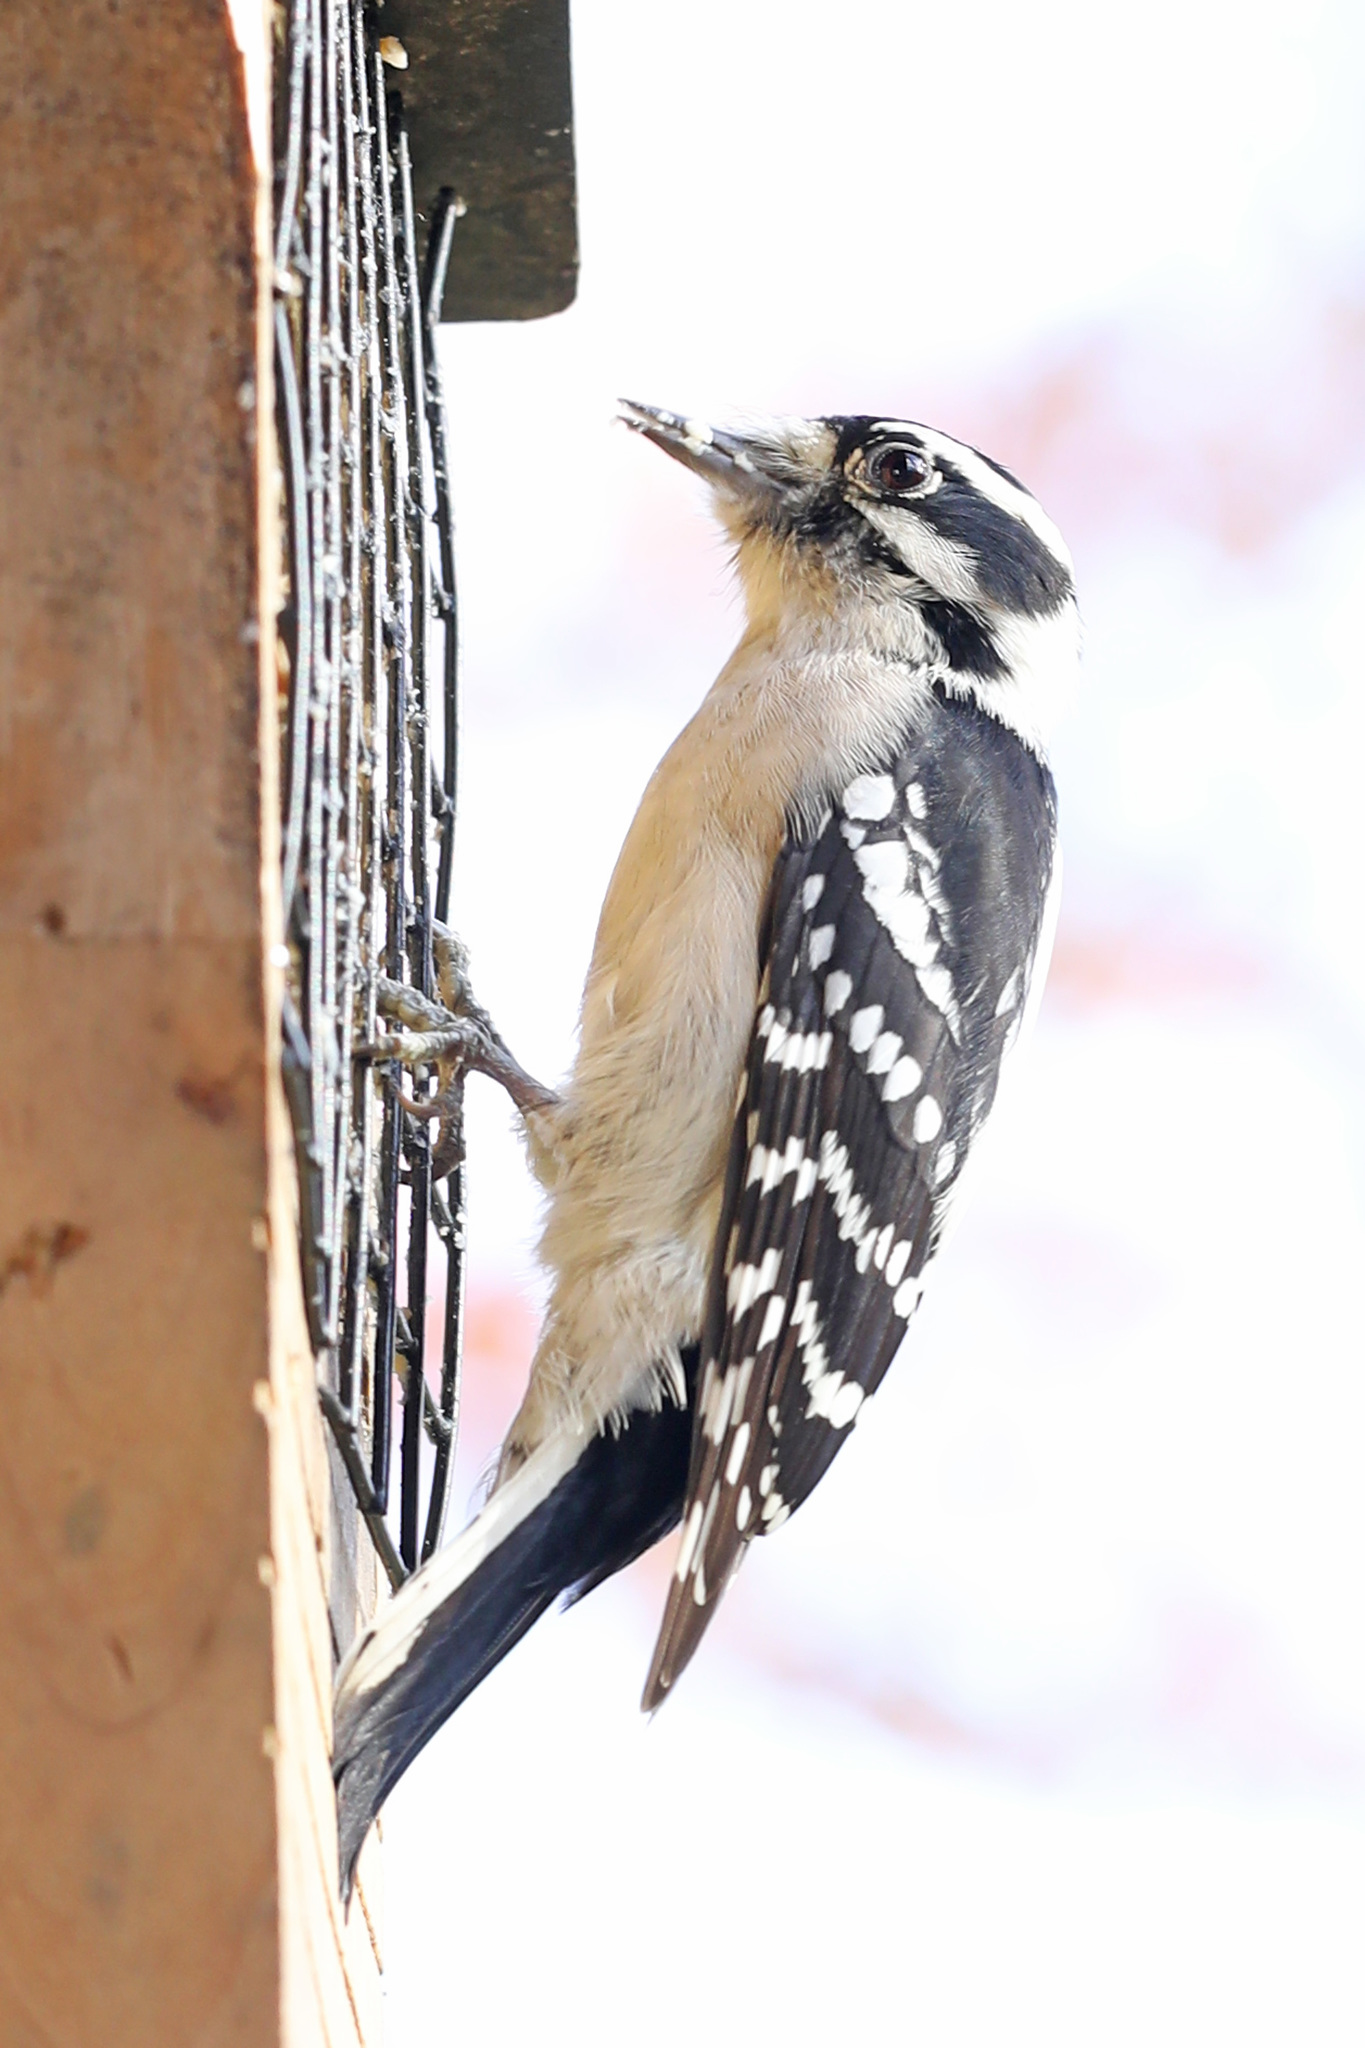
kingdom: Animalia
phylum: Chordata
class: Aves
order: Piciformes
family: Picidae
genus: Dryobates
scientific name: Dryobates pubescens
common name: Downy woodpecker
